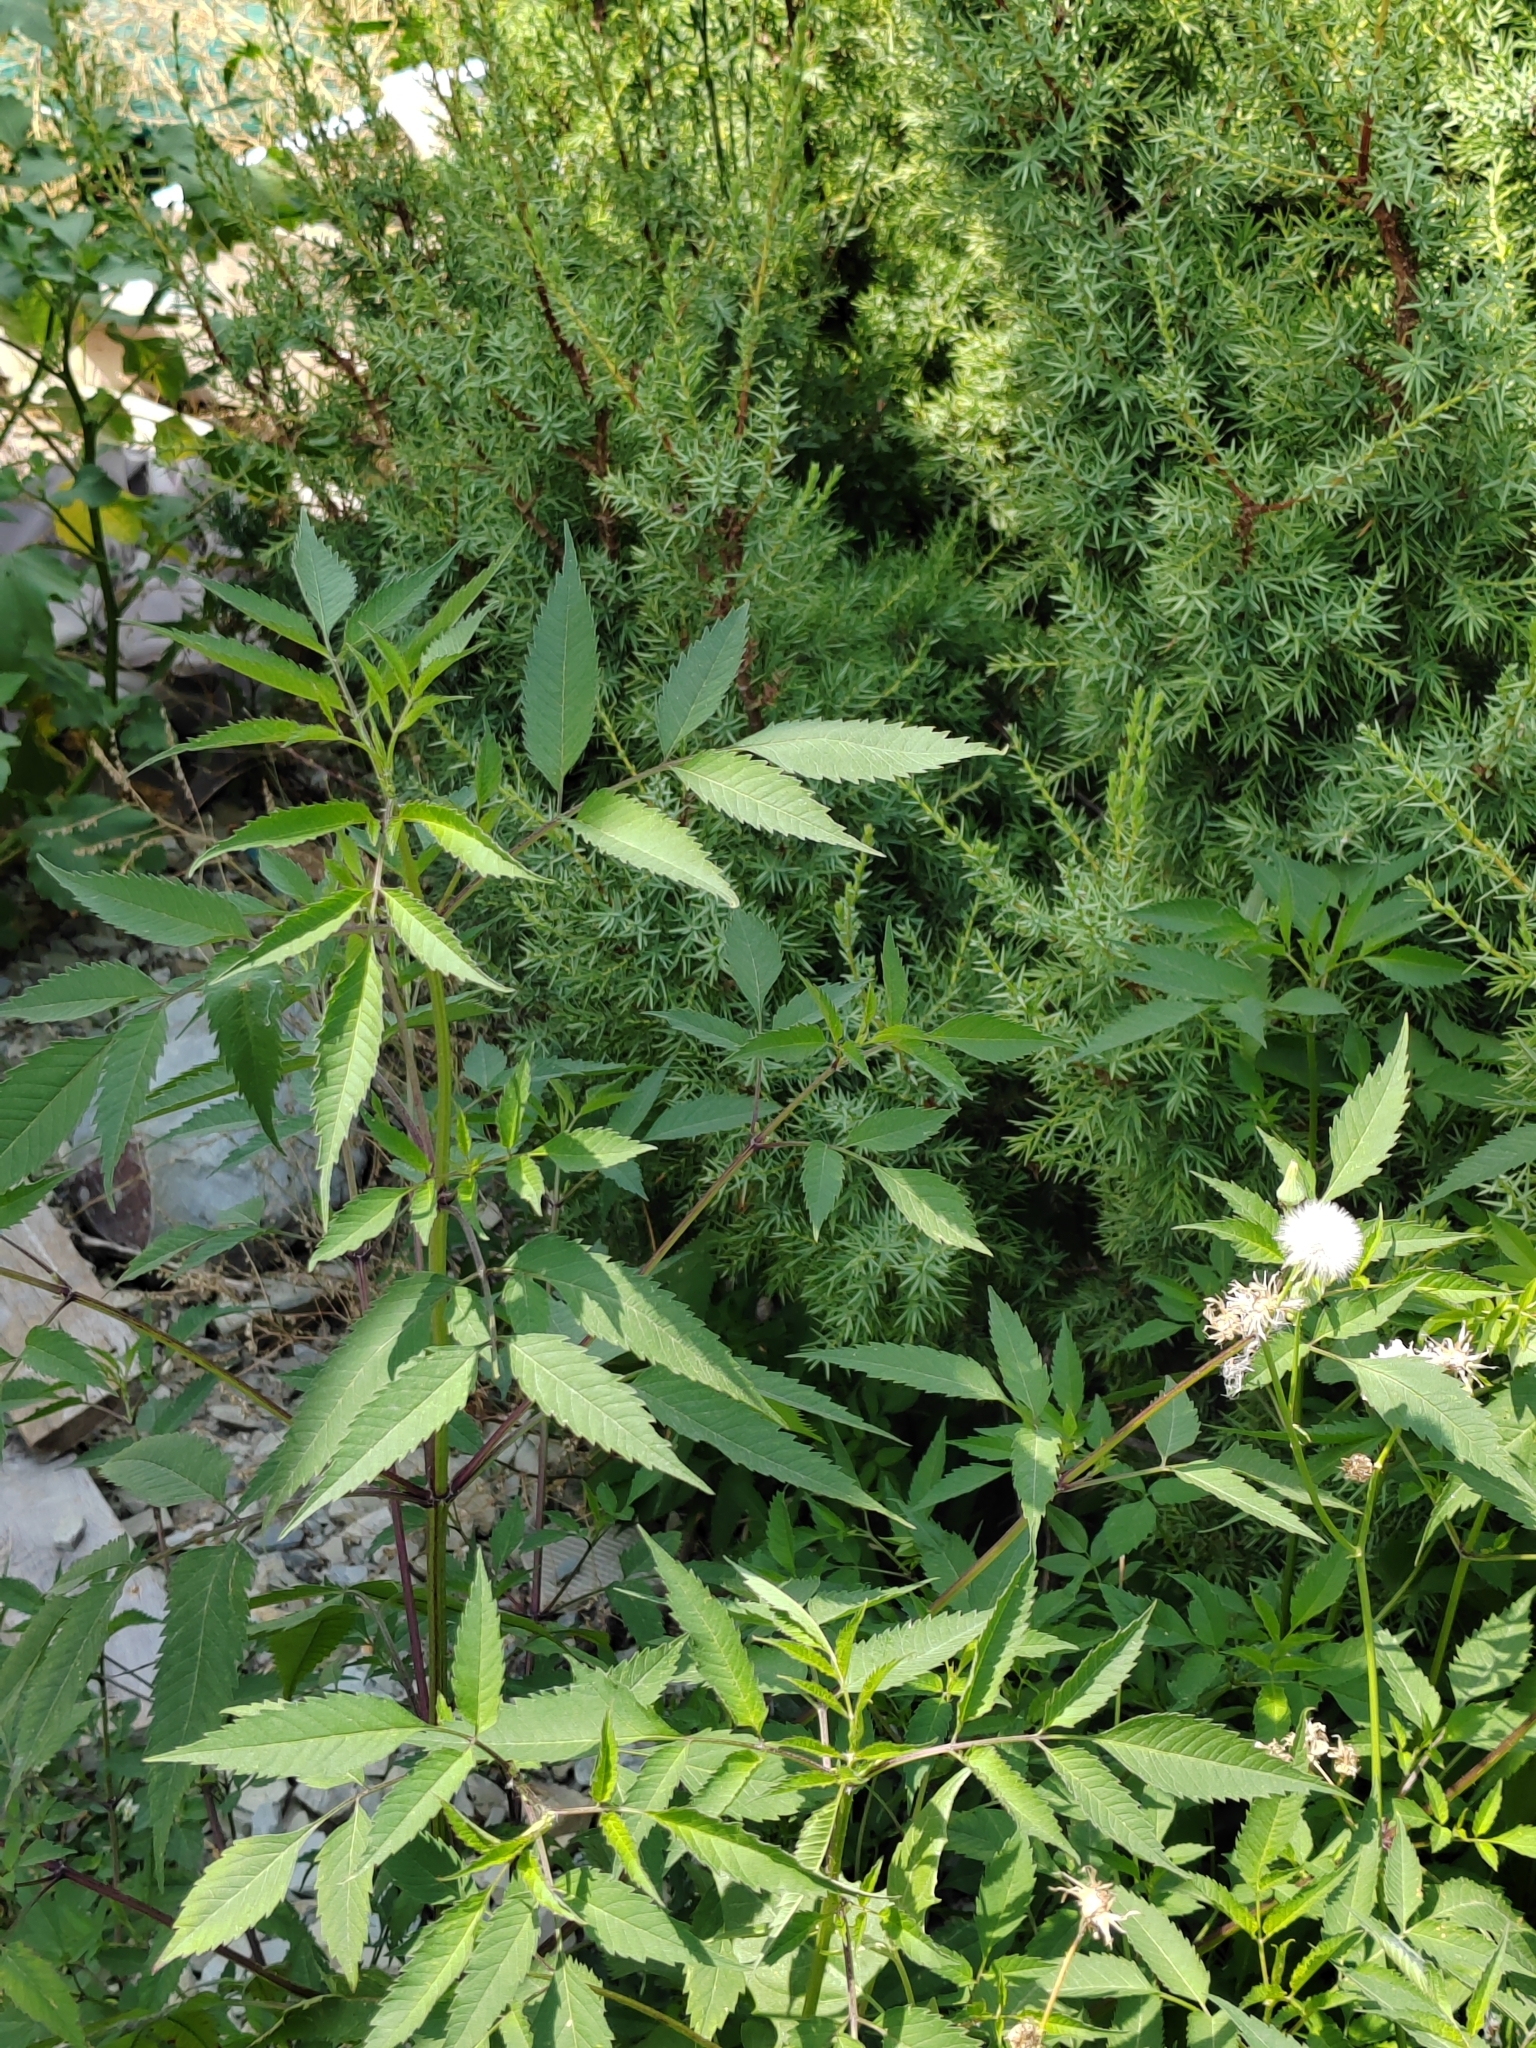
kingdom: Plantae
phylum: Tracheophyta
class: Magnoliopsida
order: Asterales
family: Asteraceae
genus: Bidens
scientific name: Bidens frondosa
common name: Beggarticks
